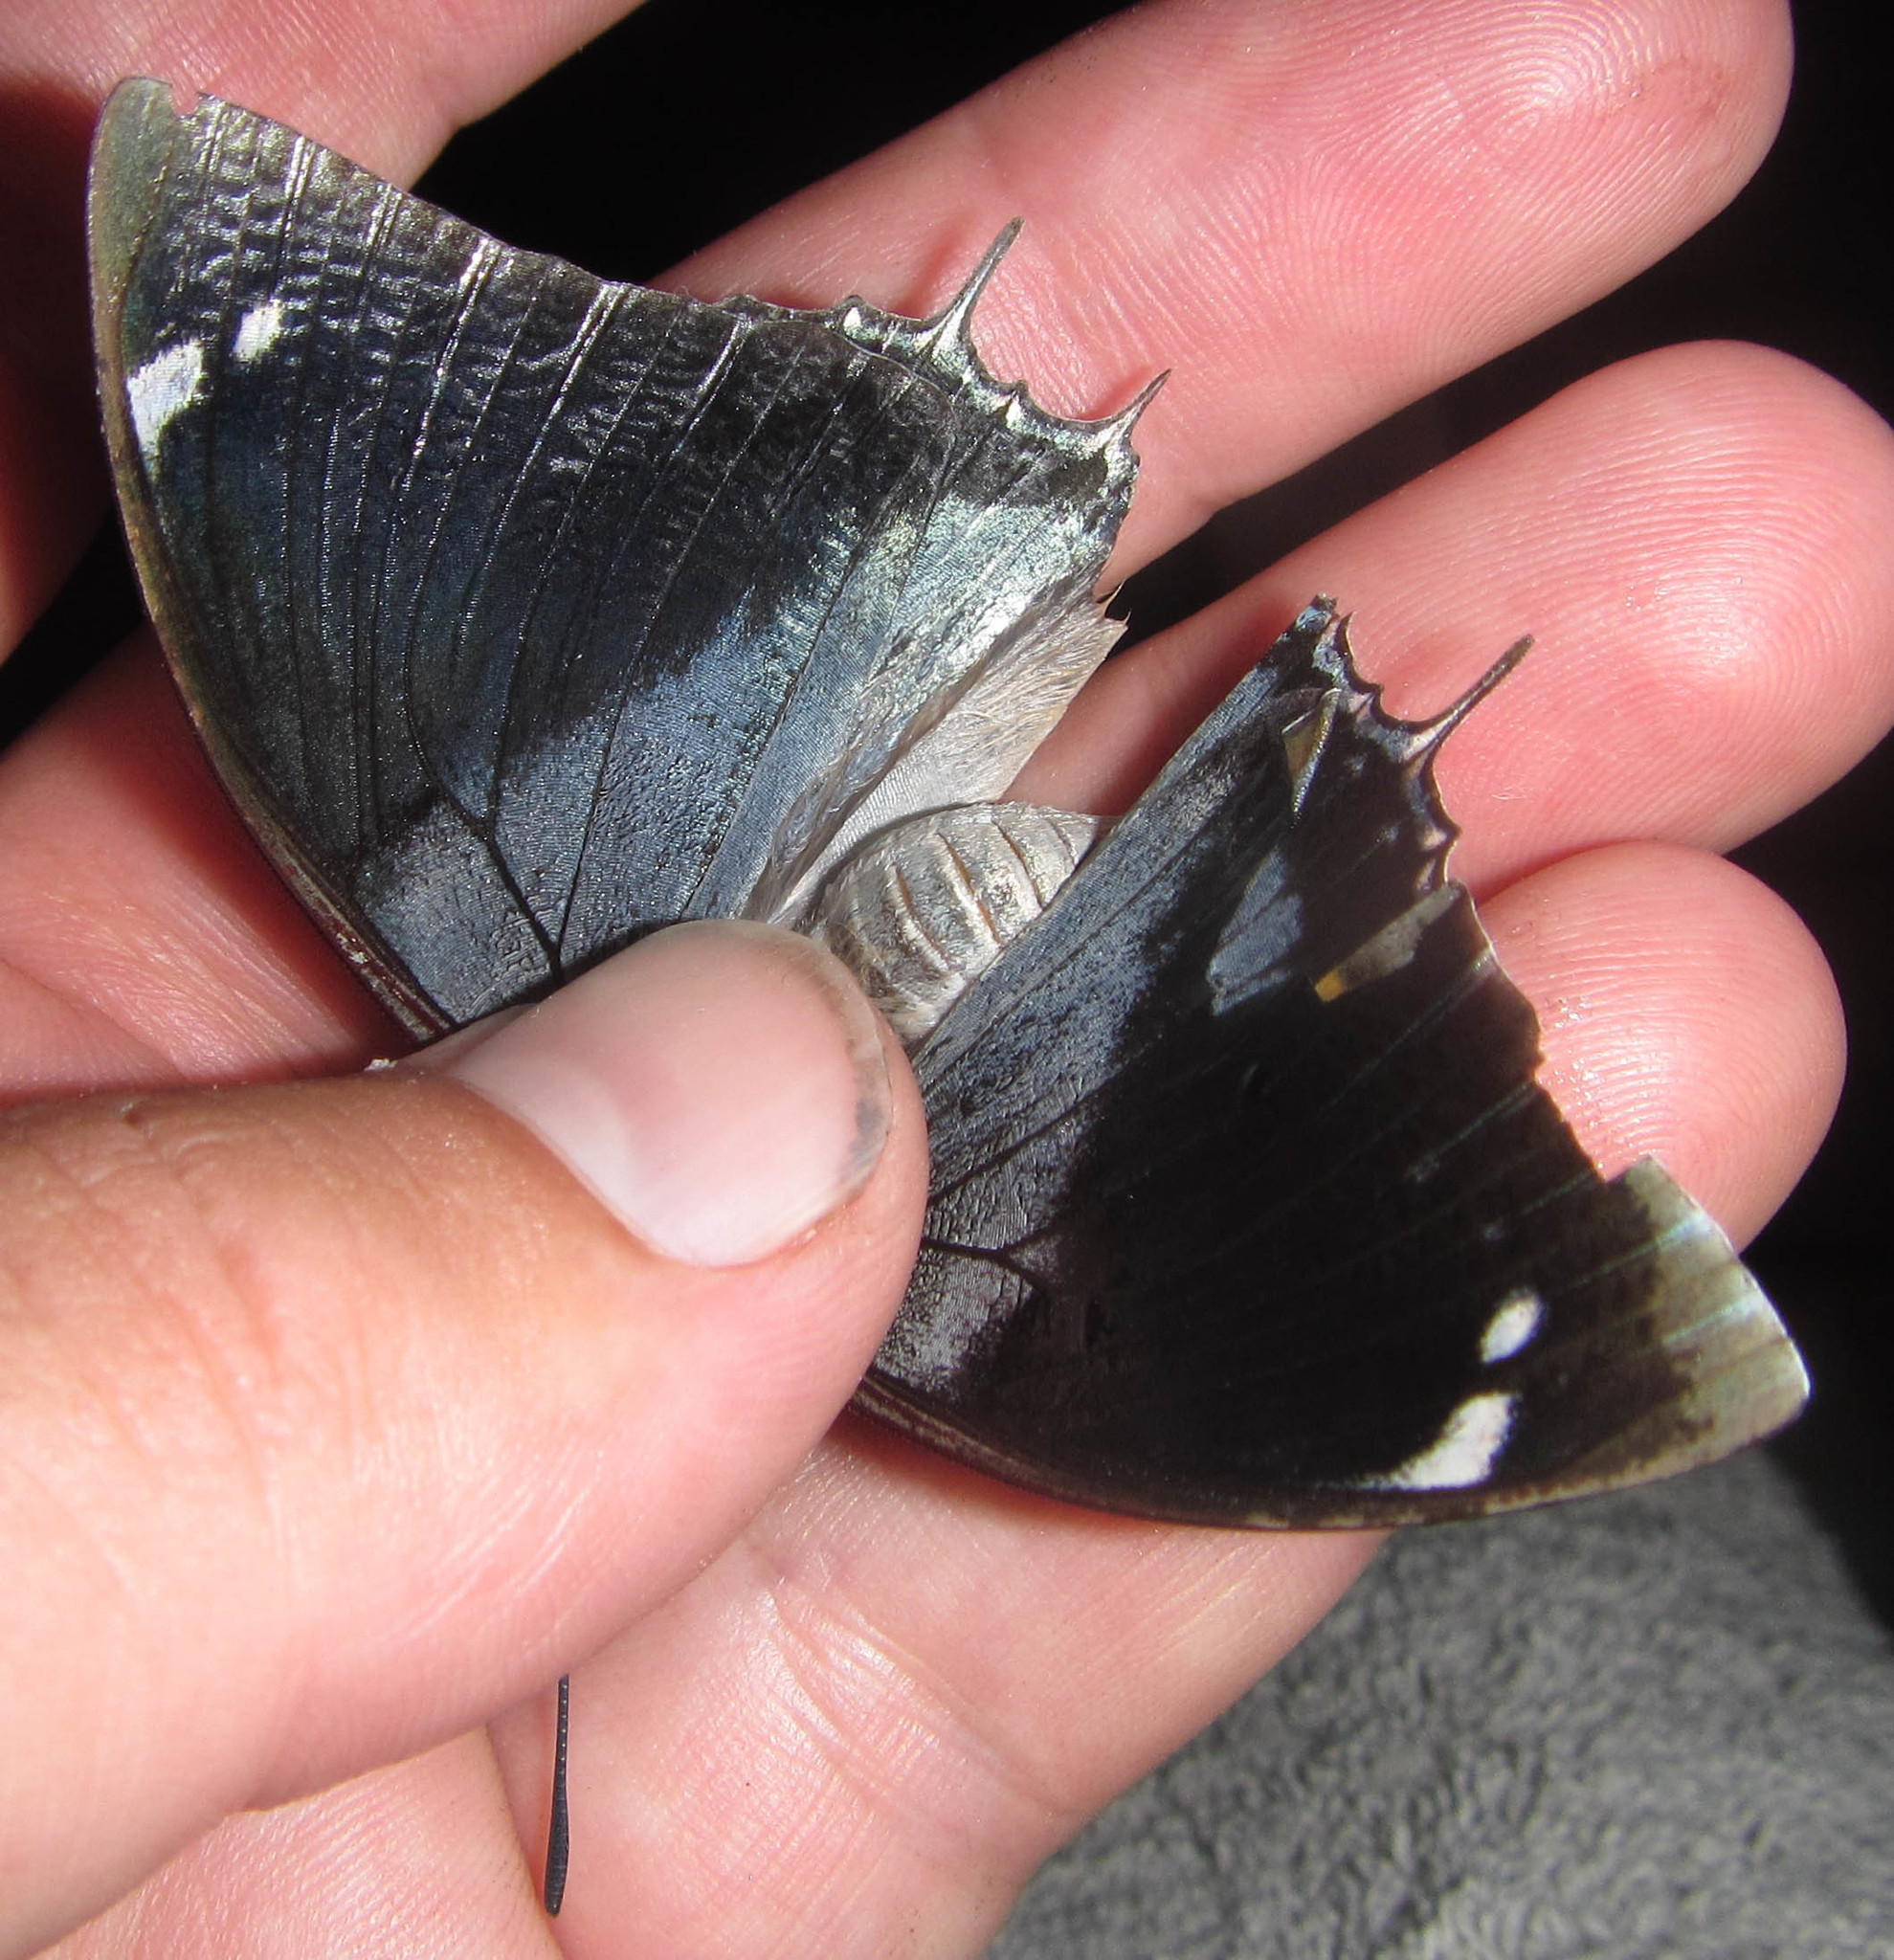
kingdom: Animalia
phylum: Arthropoda
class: Insecta
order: Lepidoptera
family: Nymphalidae
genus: Charaxes
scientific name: Charaxes bohemani
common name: Large blue charaxes
